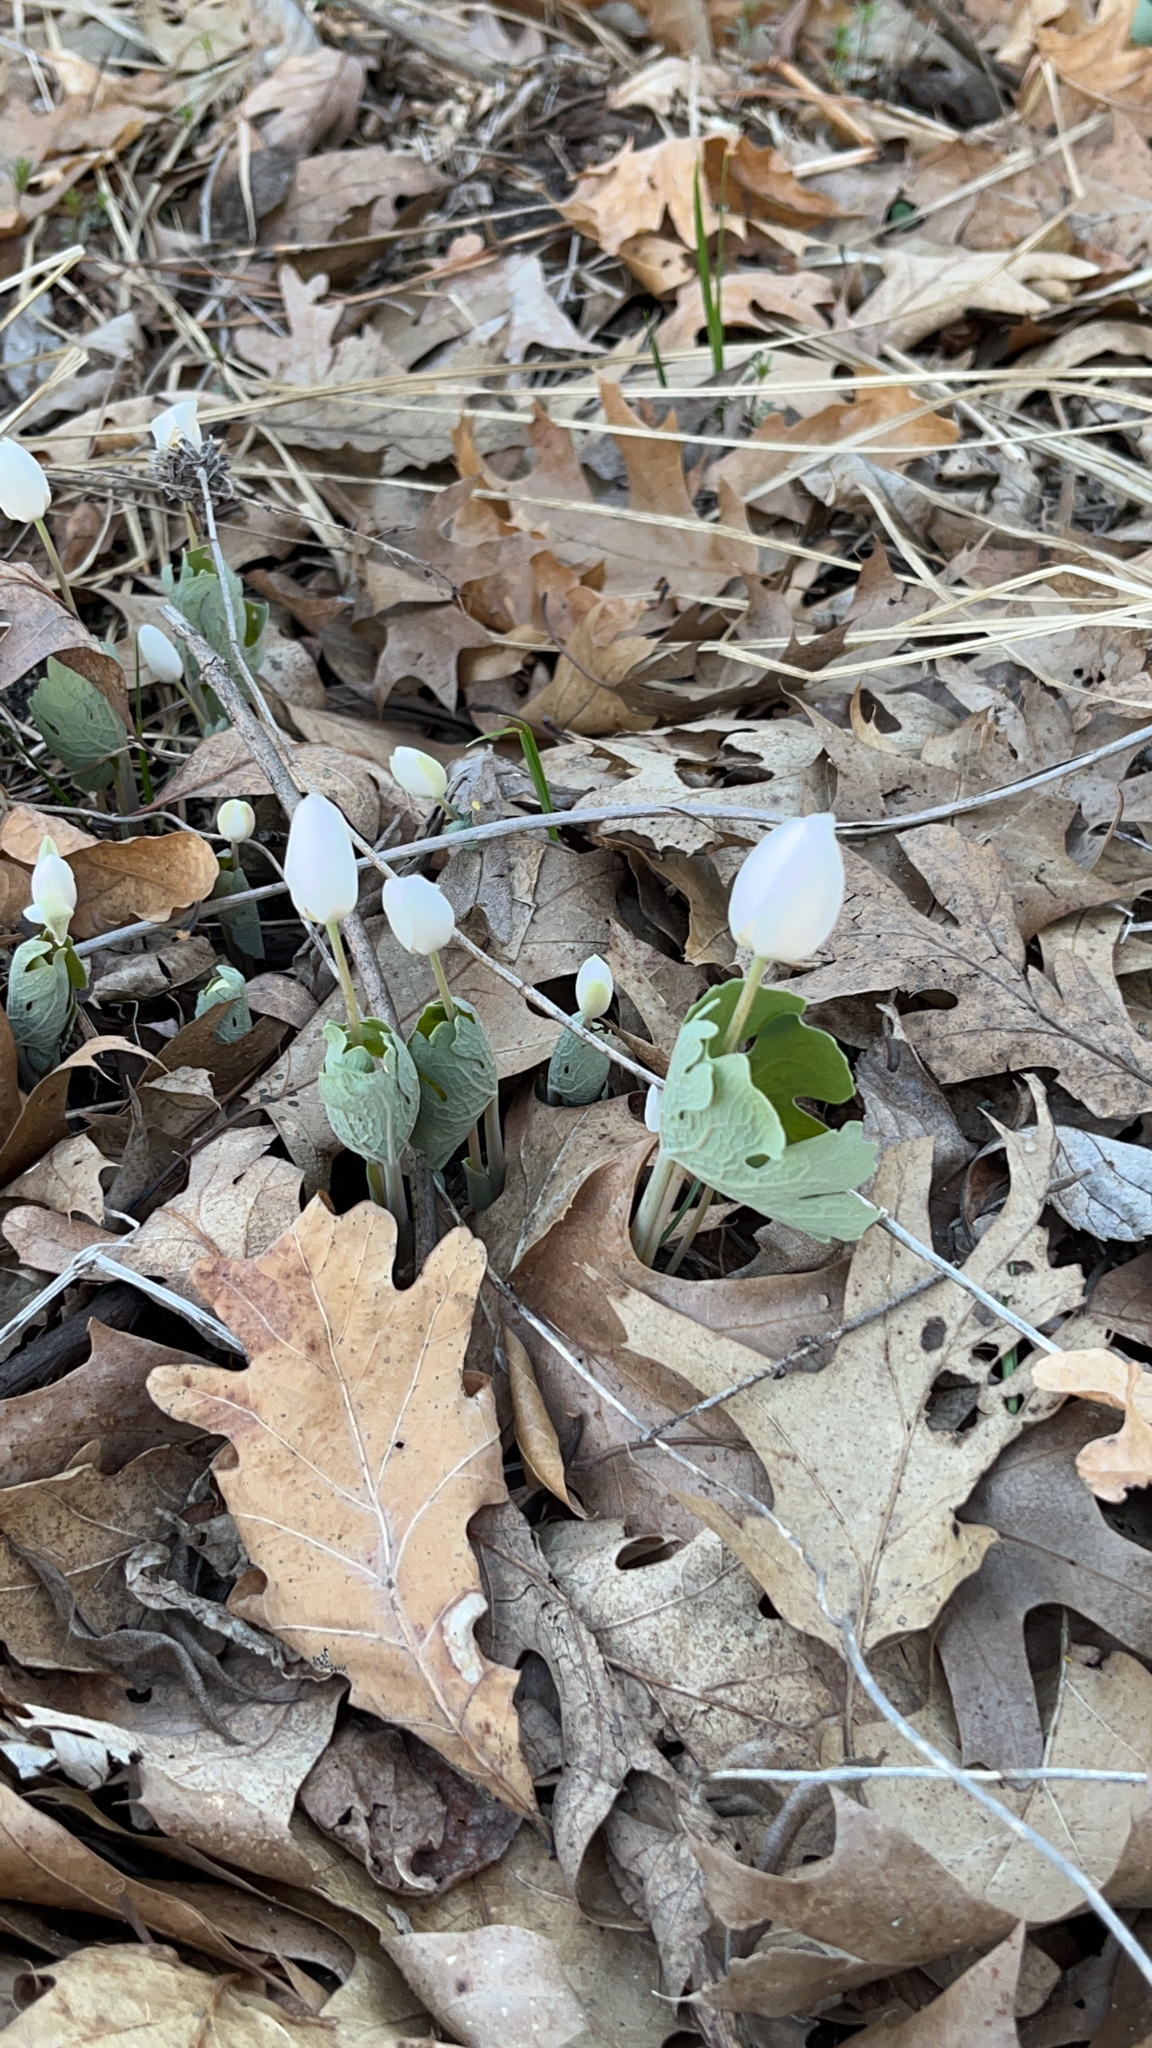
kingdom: Plantae
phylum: Tracheophyta
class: Magnoliopsida
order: Ranunculales
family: Papaveraceae
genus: Sanguinaria
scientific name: Sanguinaria canadensis
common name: Bloodroot
